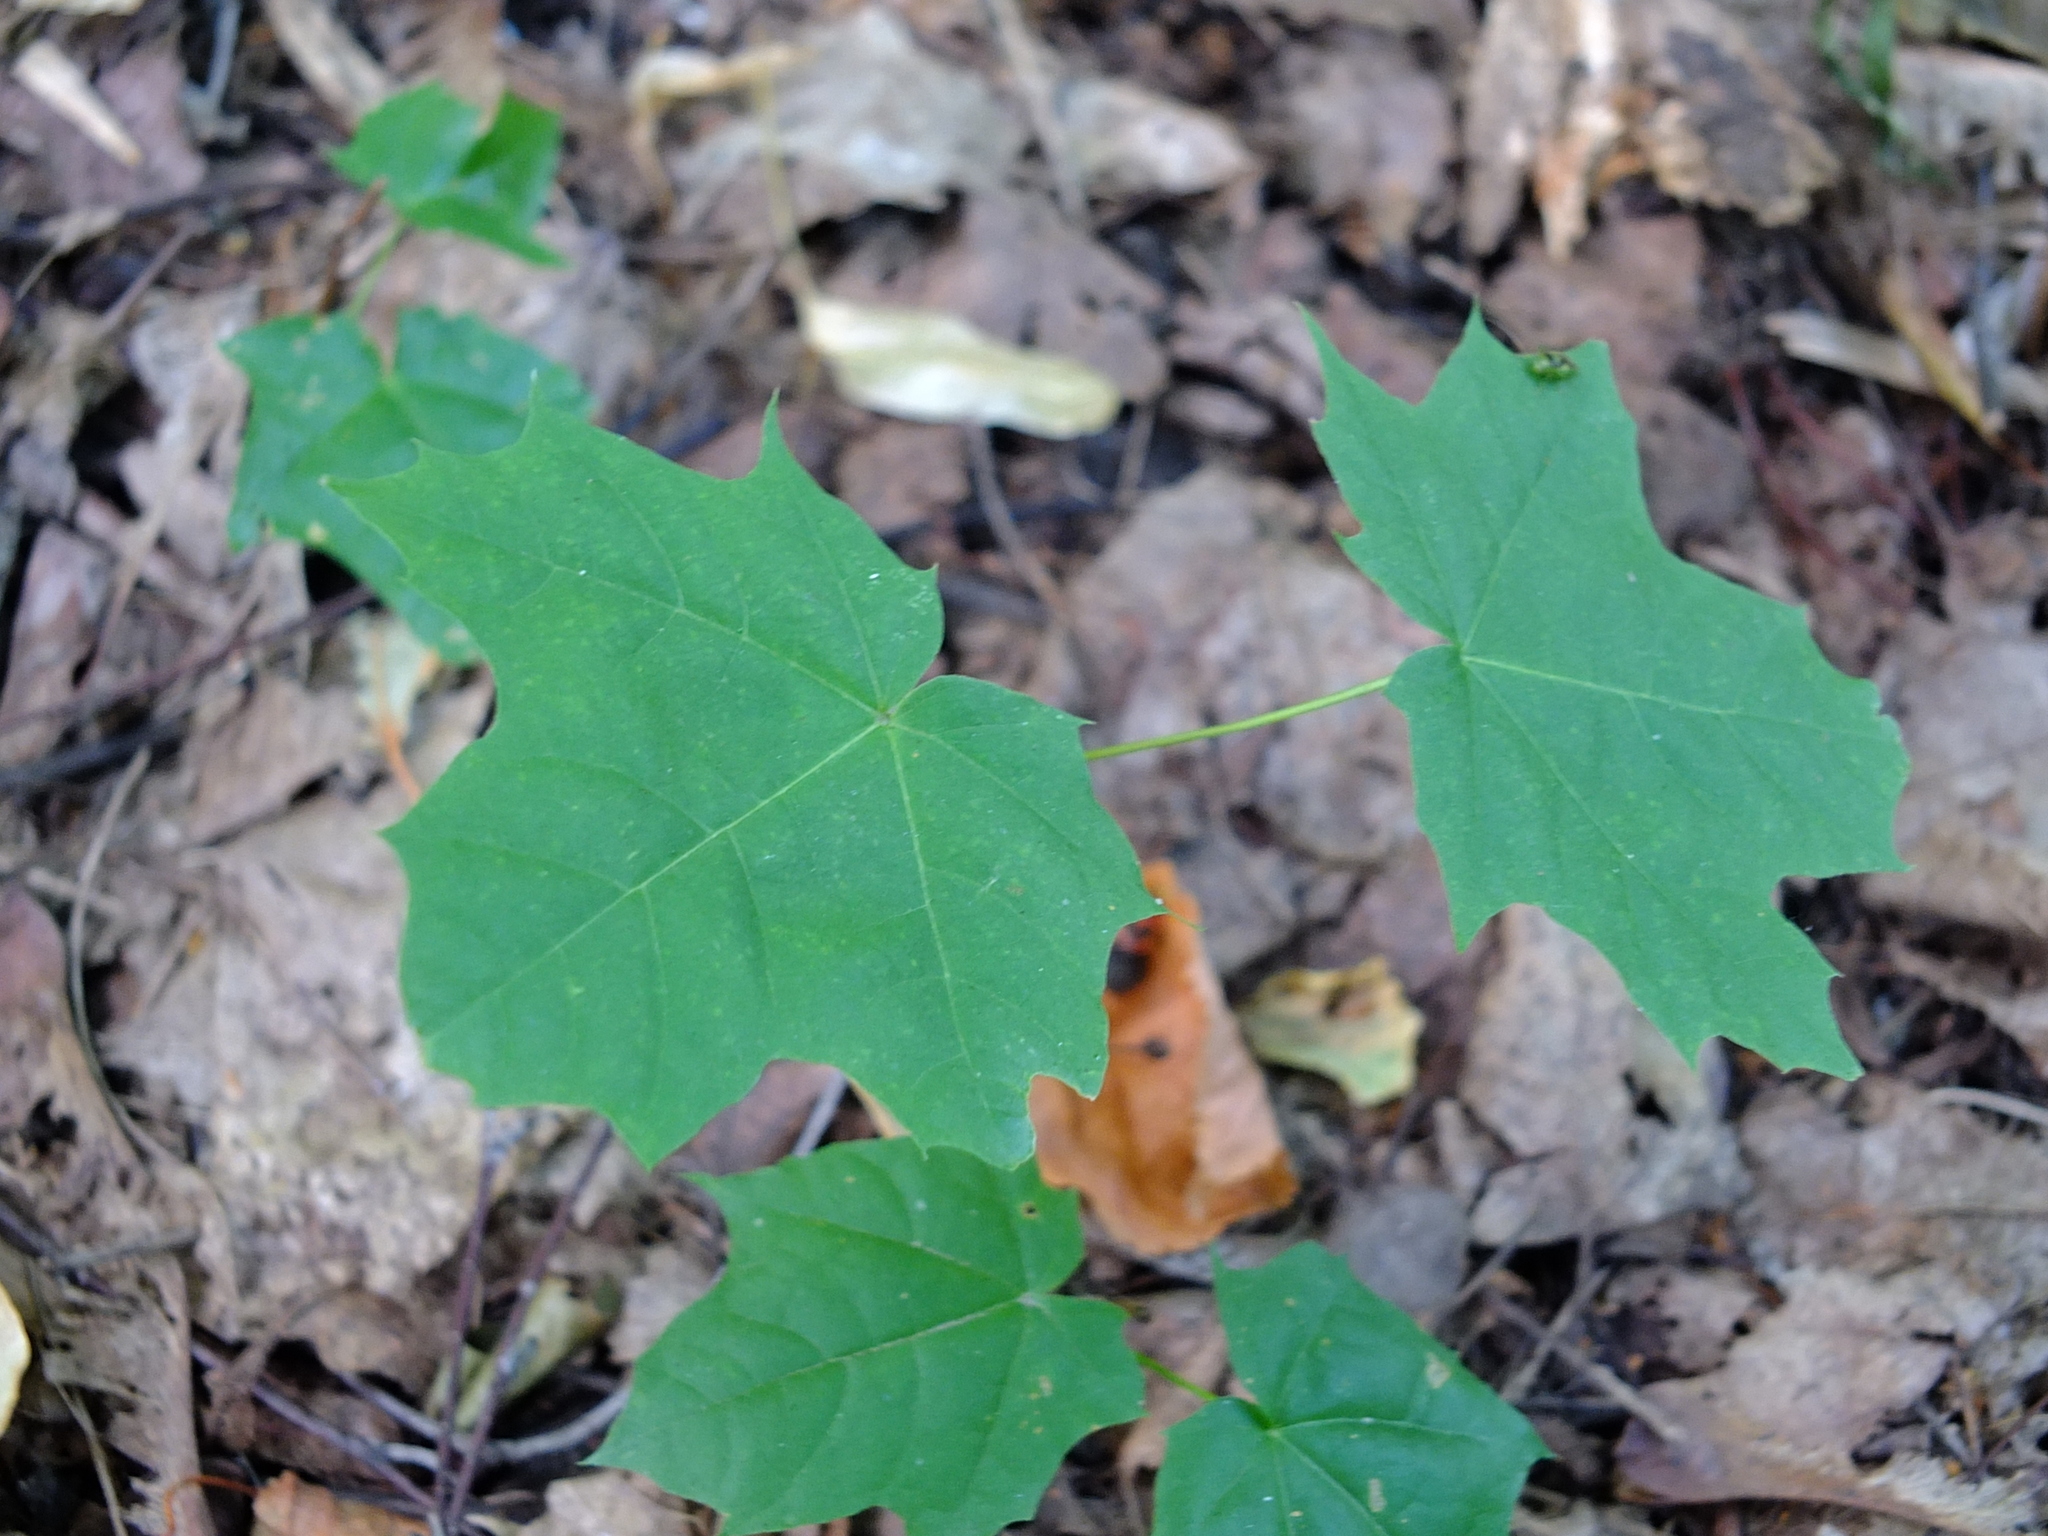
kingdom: Plantae
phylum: Tracheophyta
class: Magnoliopsida
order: Sapindales
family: Sapindaceae
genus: Acer
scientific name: Acer platanoides
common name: Norway maple
